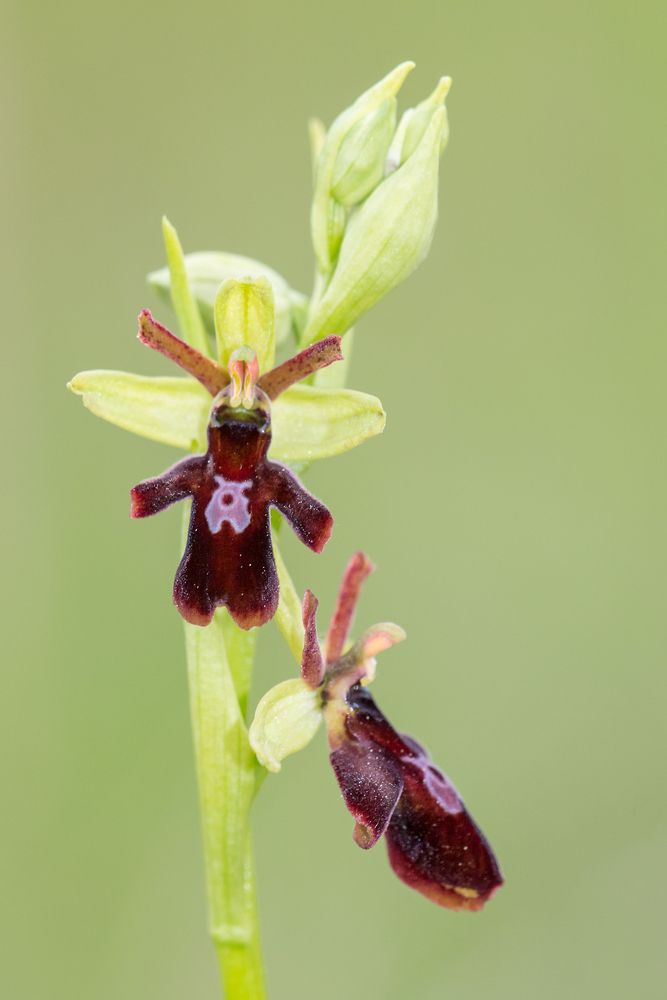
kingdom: Plantae
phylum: Tracheophyta
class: Liliopsida
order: Asparagales
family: Orchidaceae
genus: Ophrys
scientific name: Ophrys hybrida
